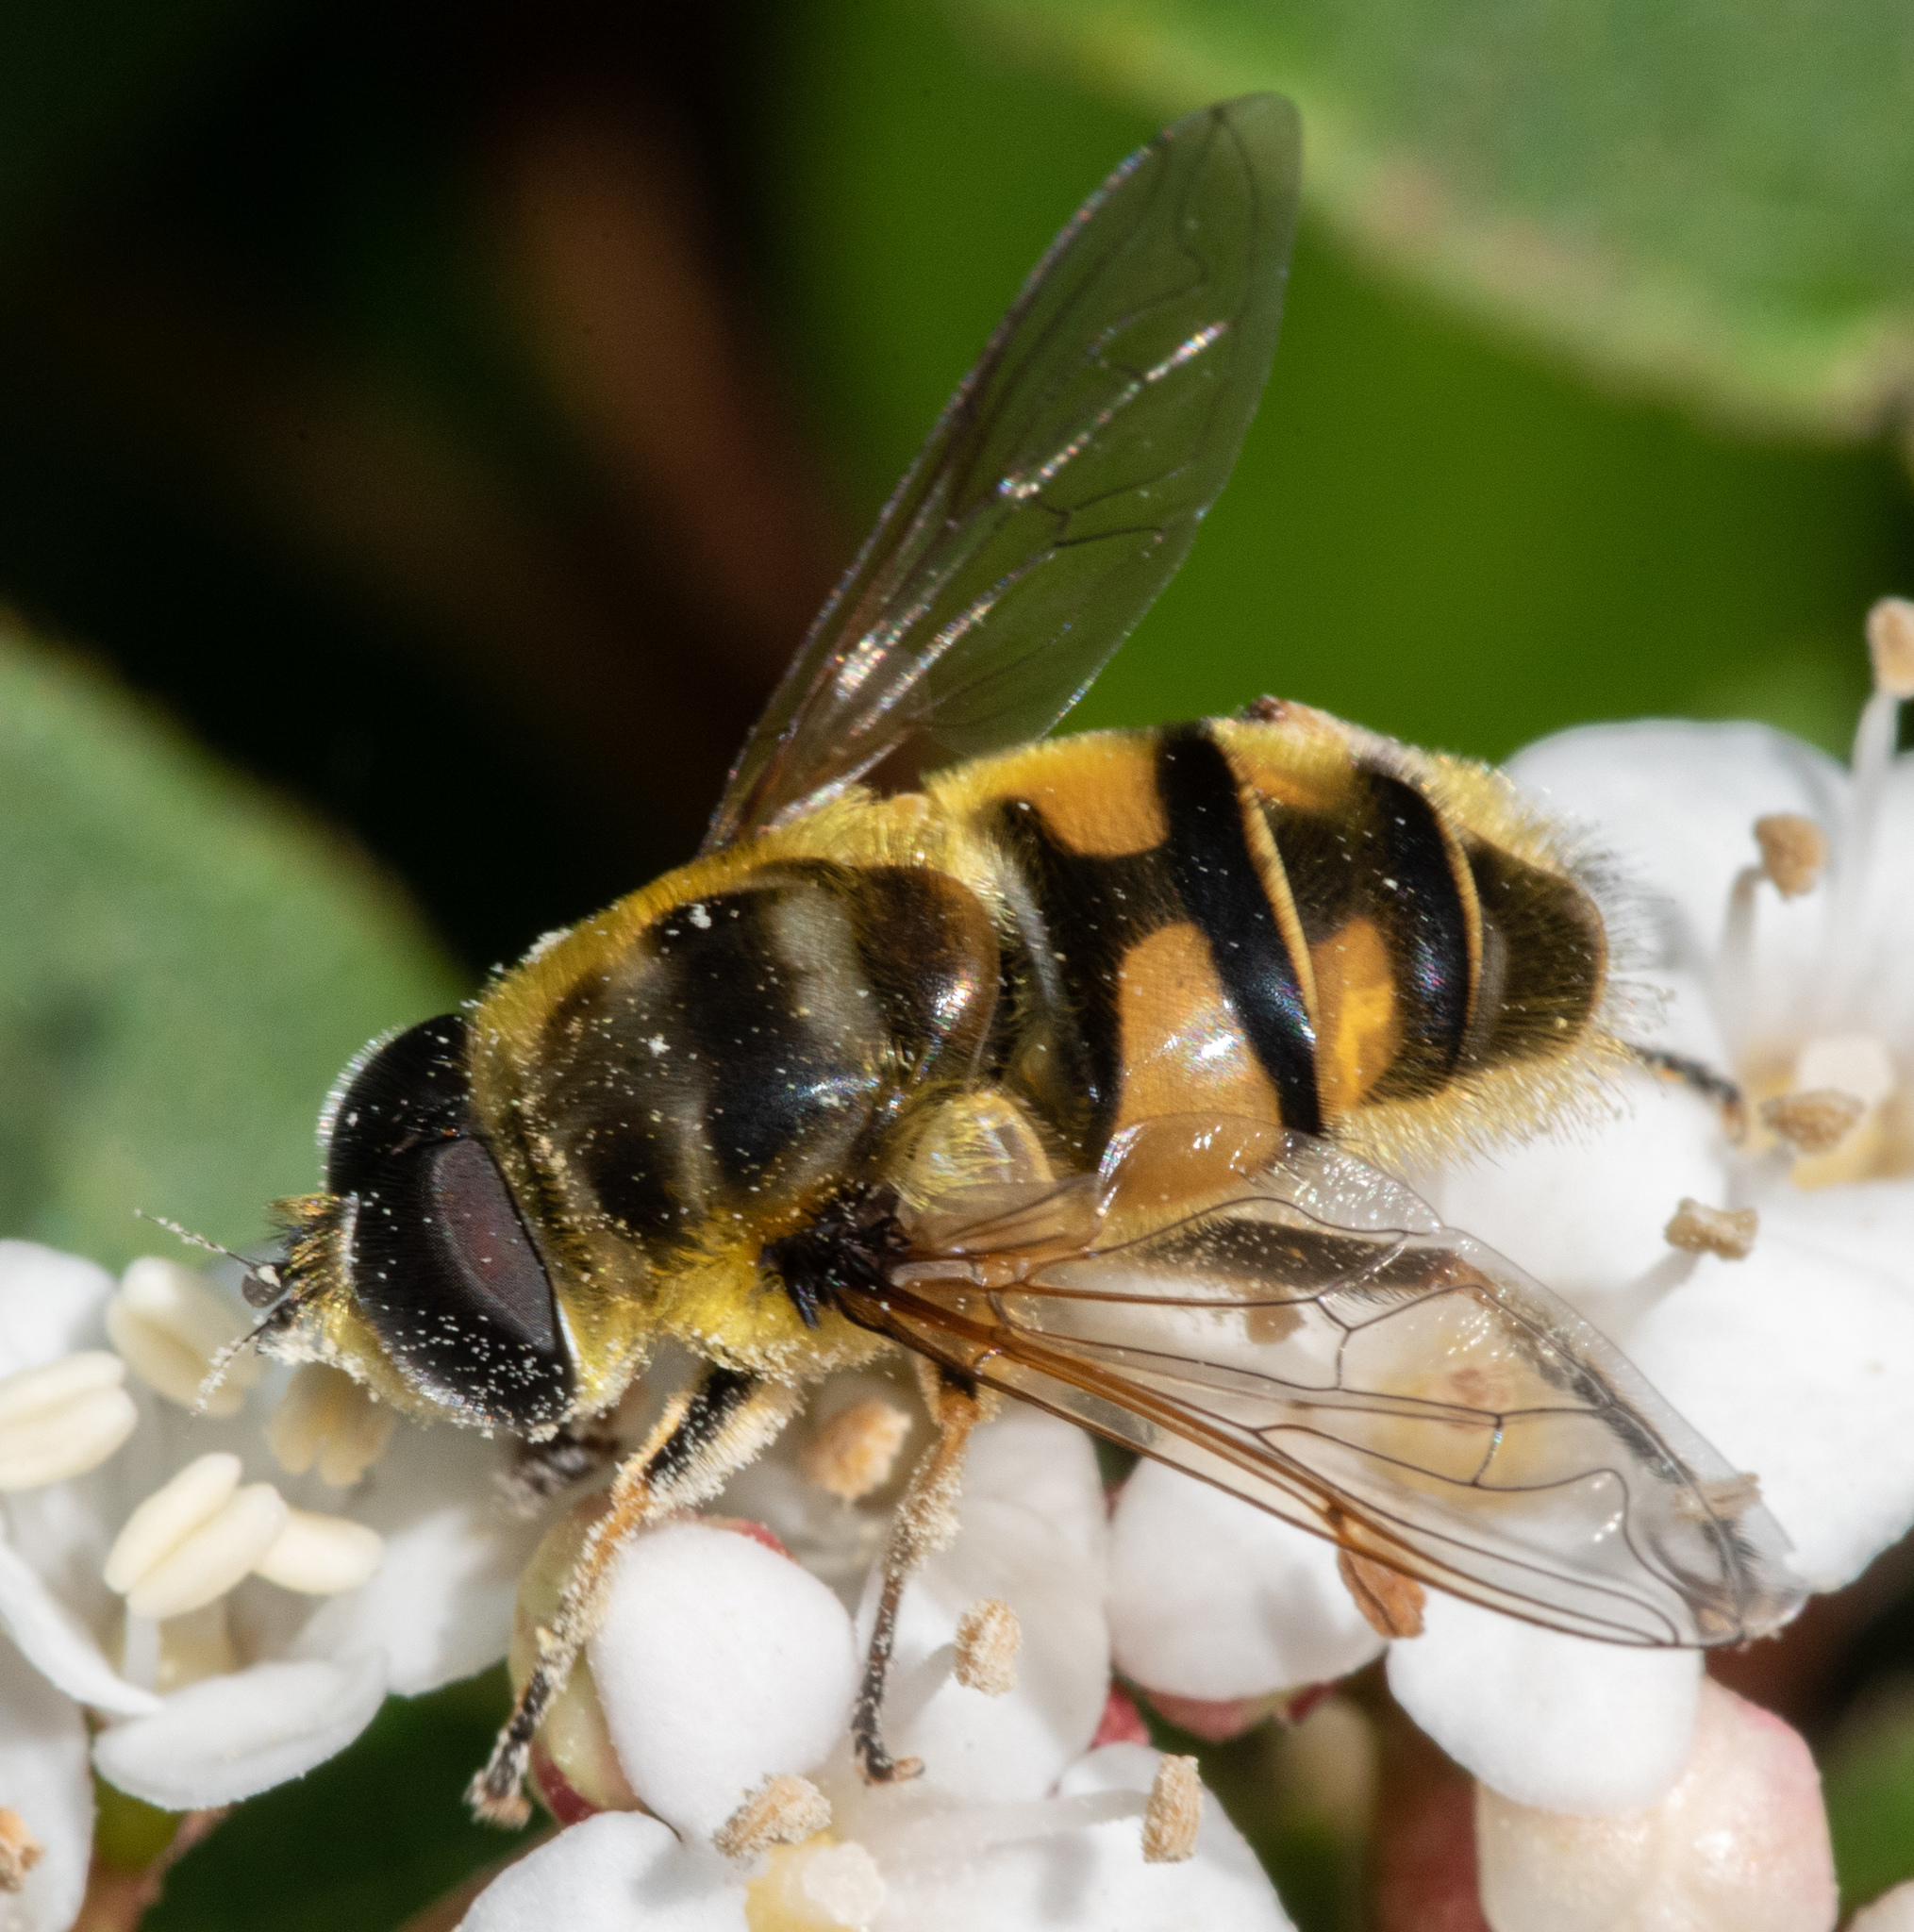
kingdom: Animalia
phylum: Arthropoda
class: Insecta
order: Diptera
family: Syrphidae
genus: Myathropa
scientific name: Myathropa florea
